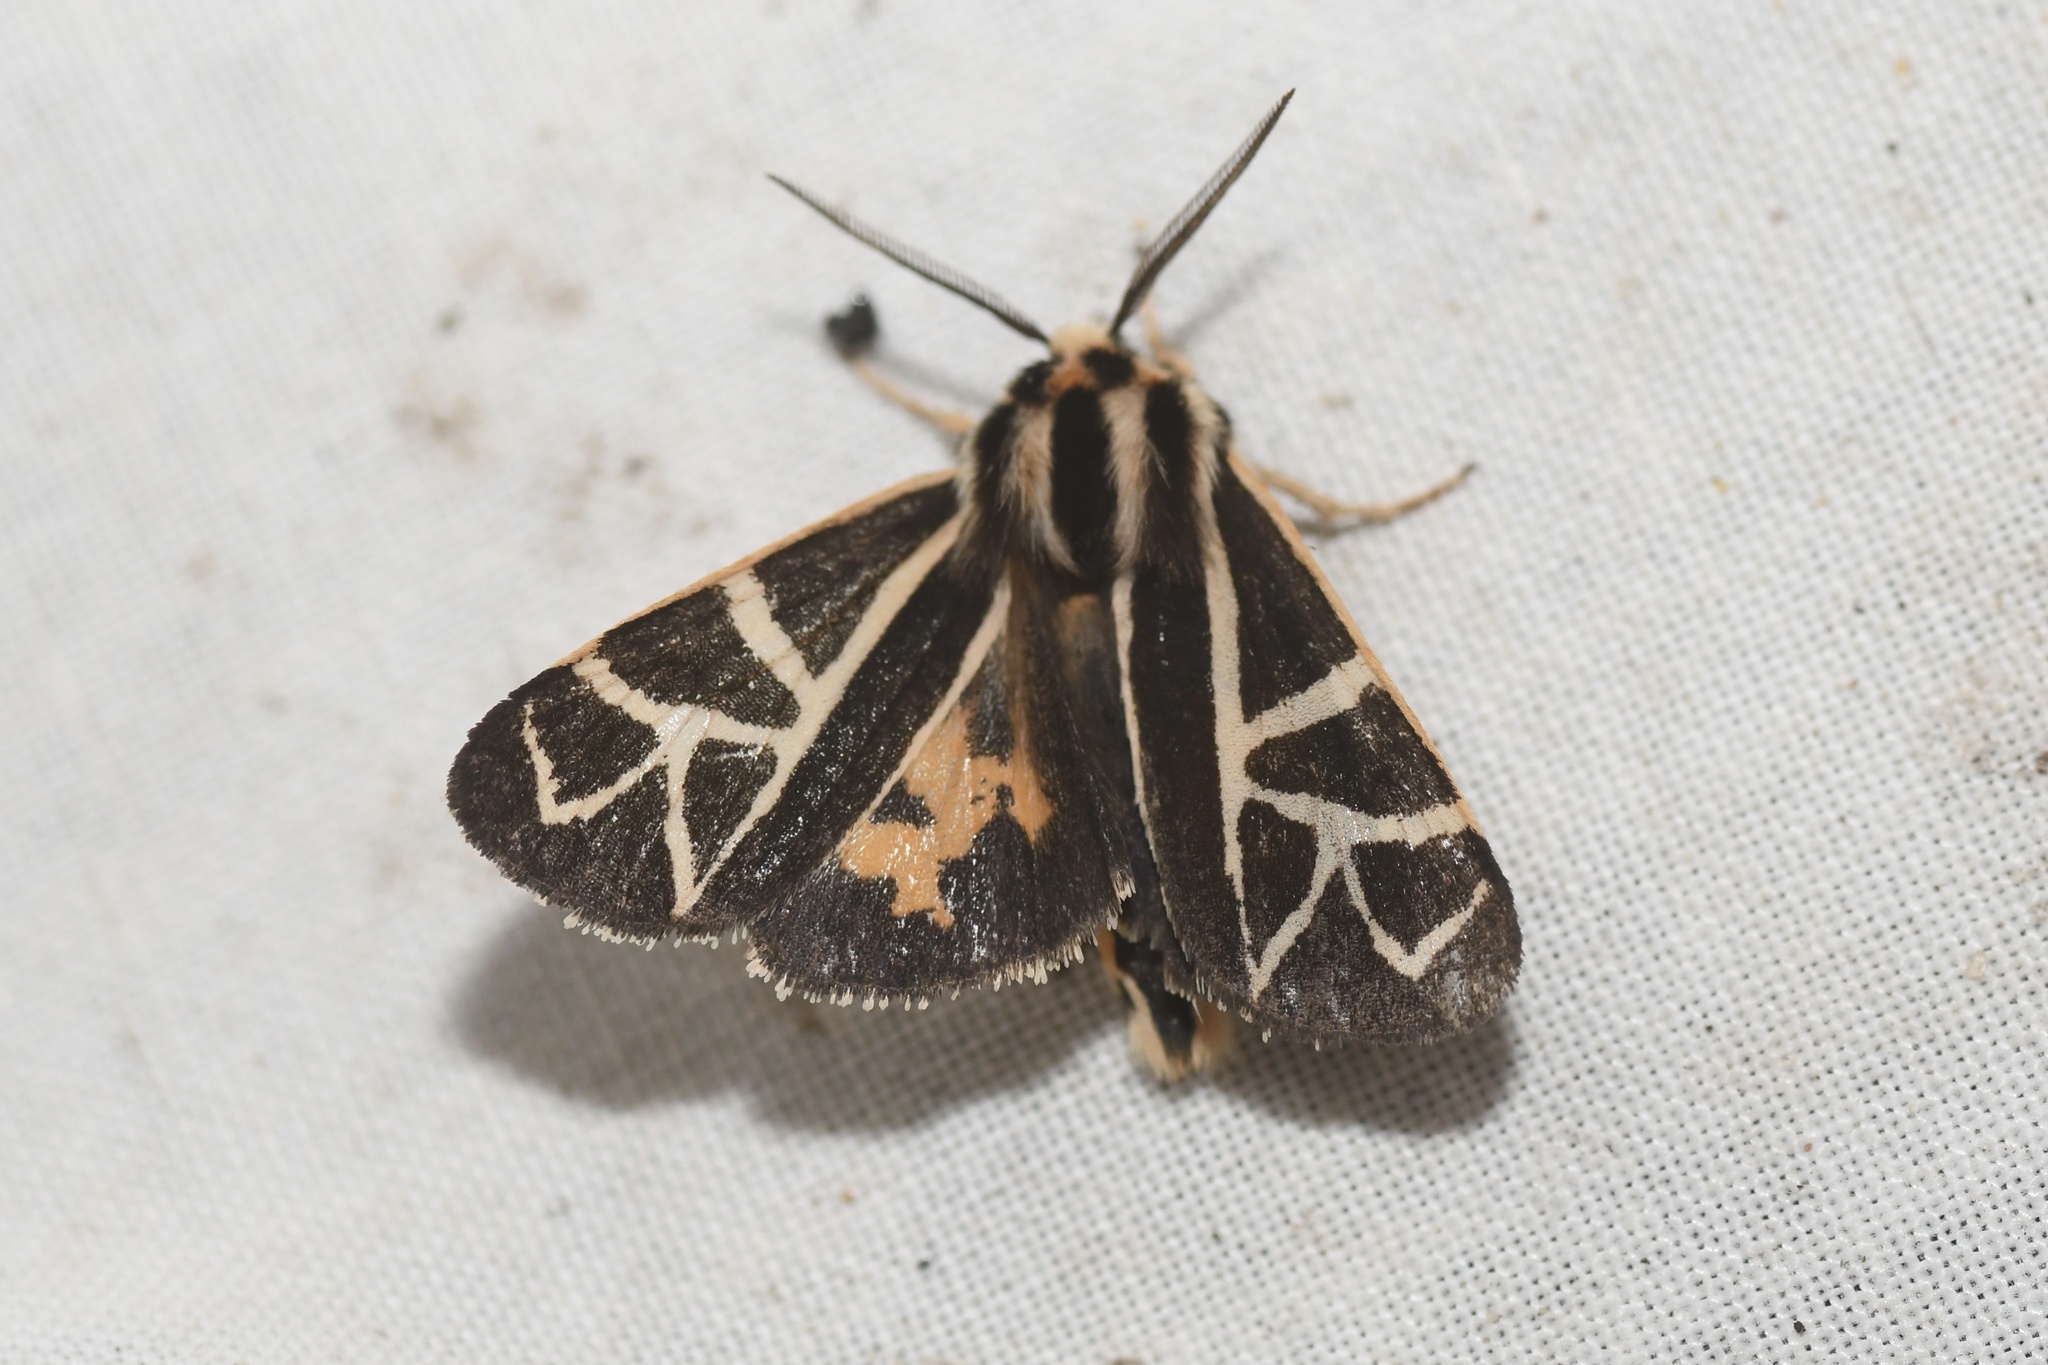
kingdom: Animalia
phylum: Arthropoda
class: Insecta
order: Lepidoptera
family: Erebidae
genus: Apantesis
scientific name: Apantesis
